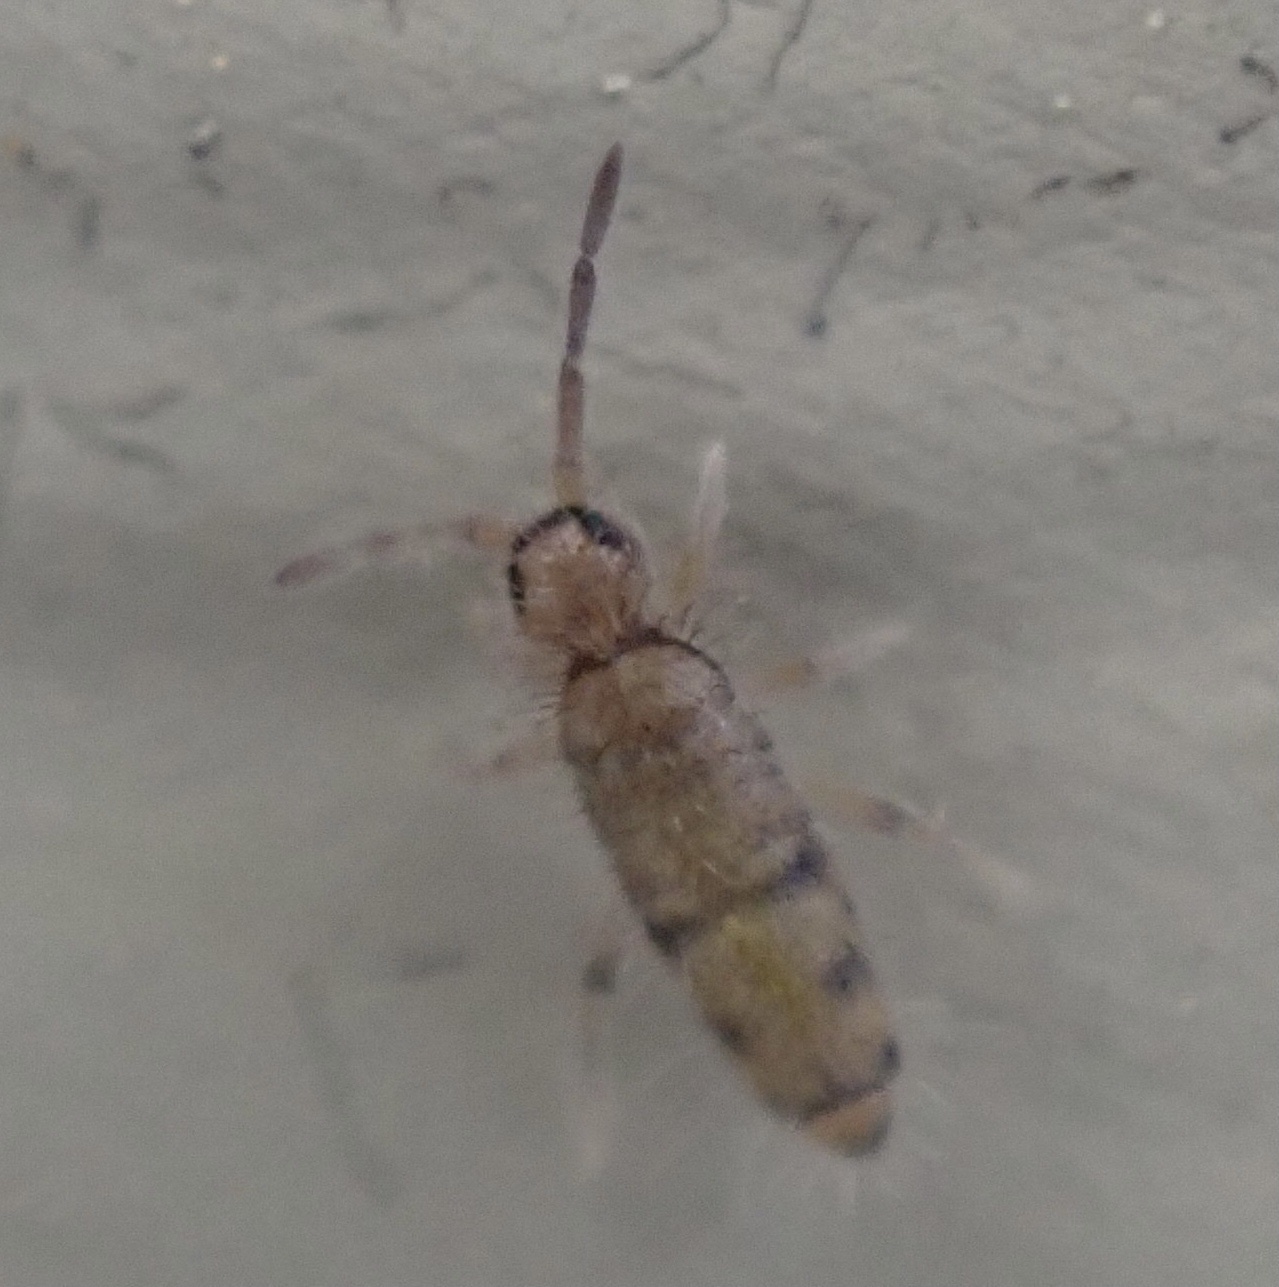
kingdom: Animalia
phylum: Arthropoda
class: Collembola
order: Entomobryomorpha
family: Entomobryidae
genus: Willowsia
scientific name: Willowsia nigromaculata
